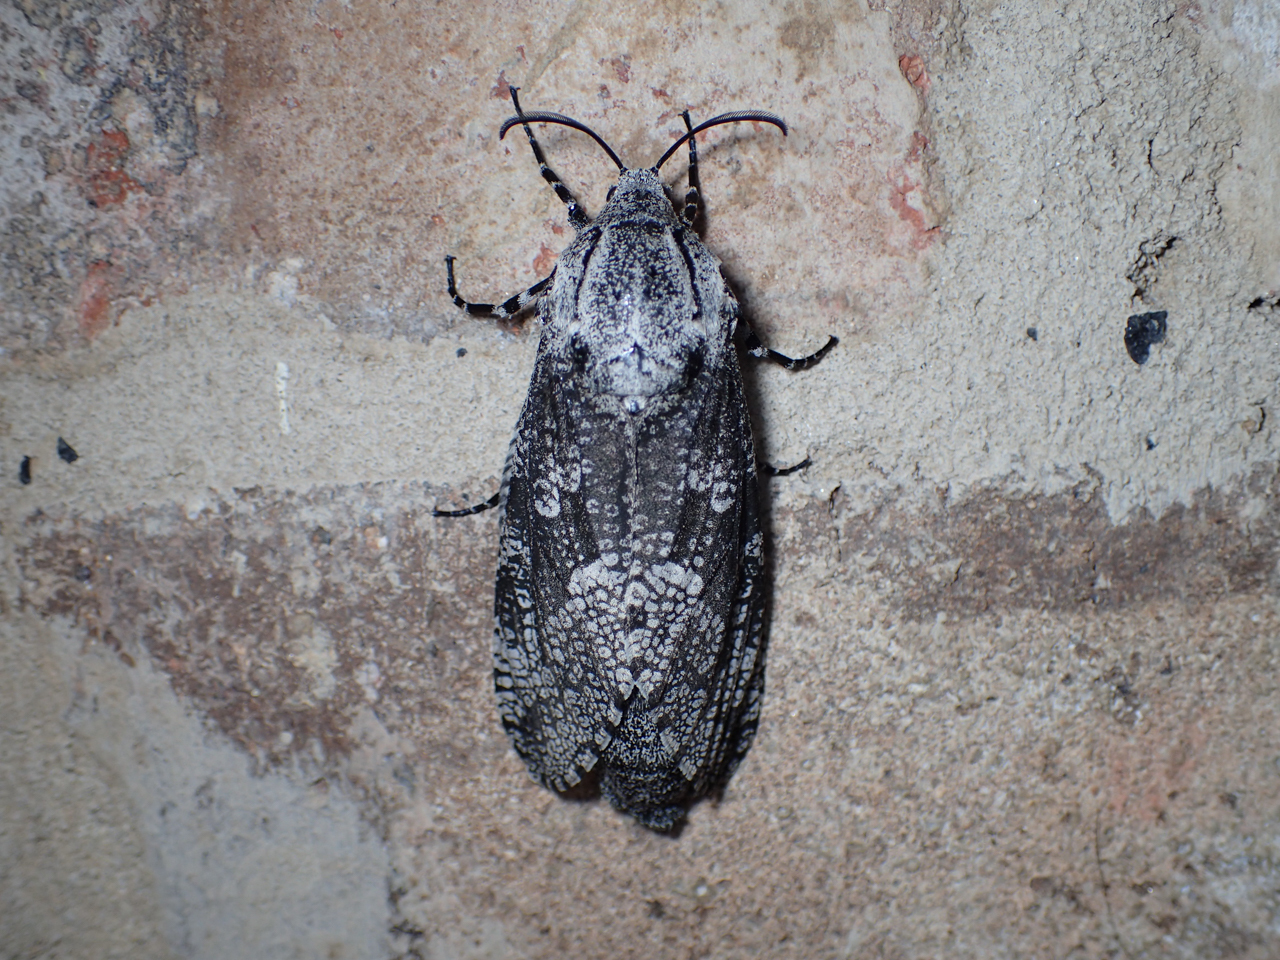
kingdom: Animalia
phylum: Arthropoda
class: Insecta
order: Lepidoptera
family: Cossidae
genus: Prionoxystus
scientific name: Prionoxystus robiniae
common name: Carpenterworm
